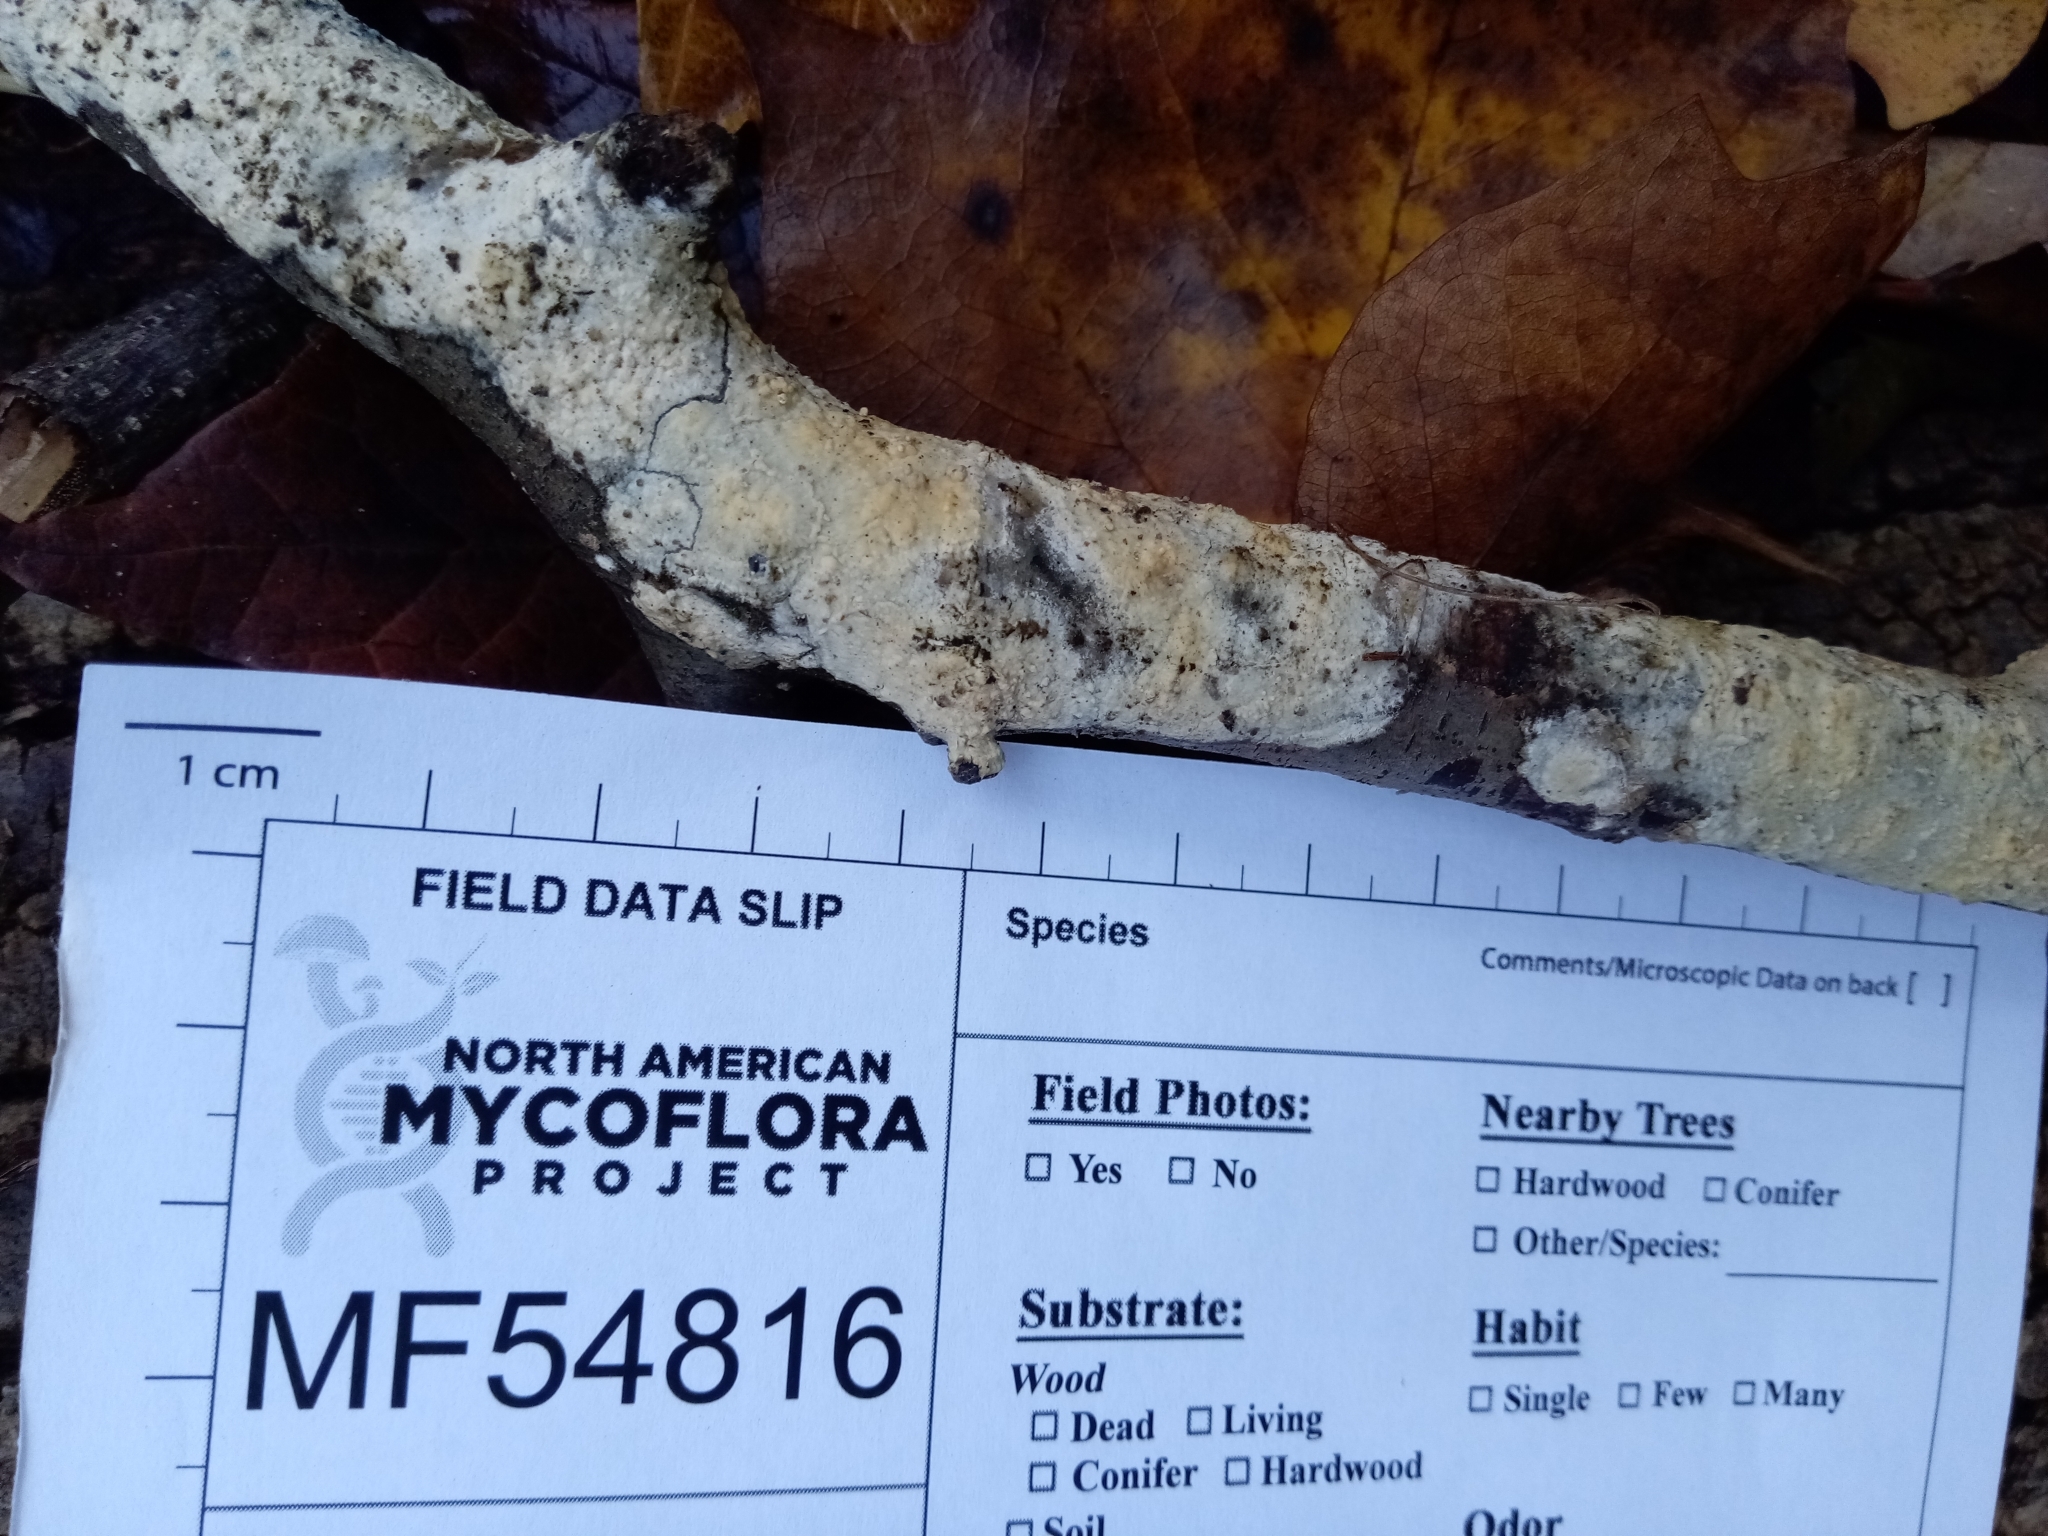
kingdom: Fungi
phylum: Basidiomycota
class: Agaricomycetes
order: Hymenochaetales
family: Schizoporaceae
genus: Xylodon
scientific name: Xylodon radula
